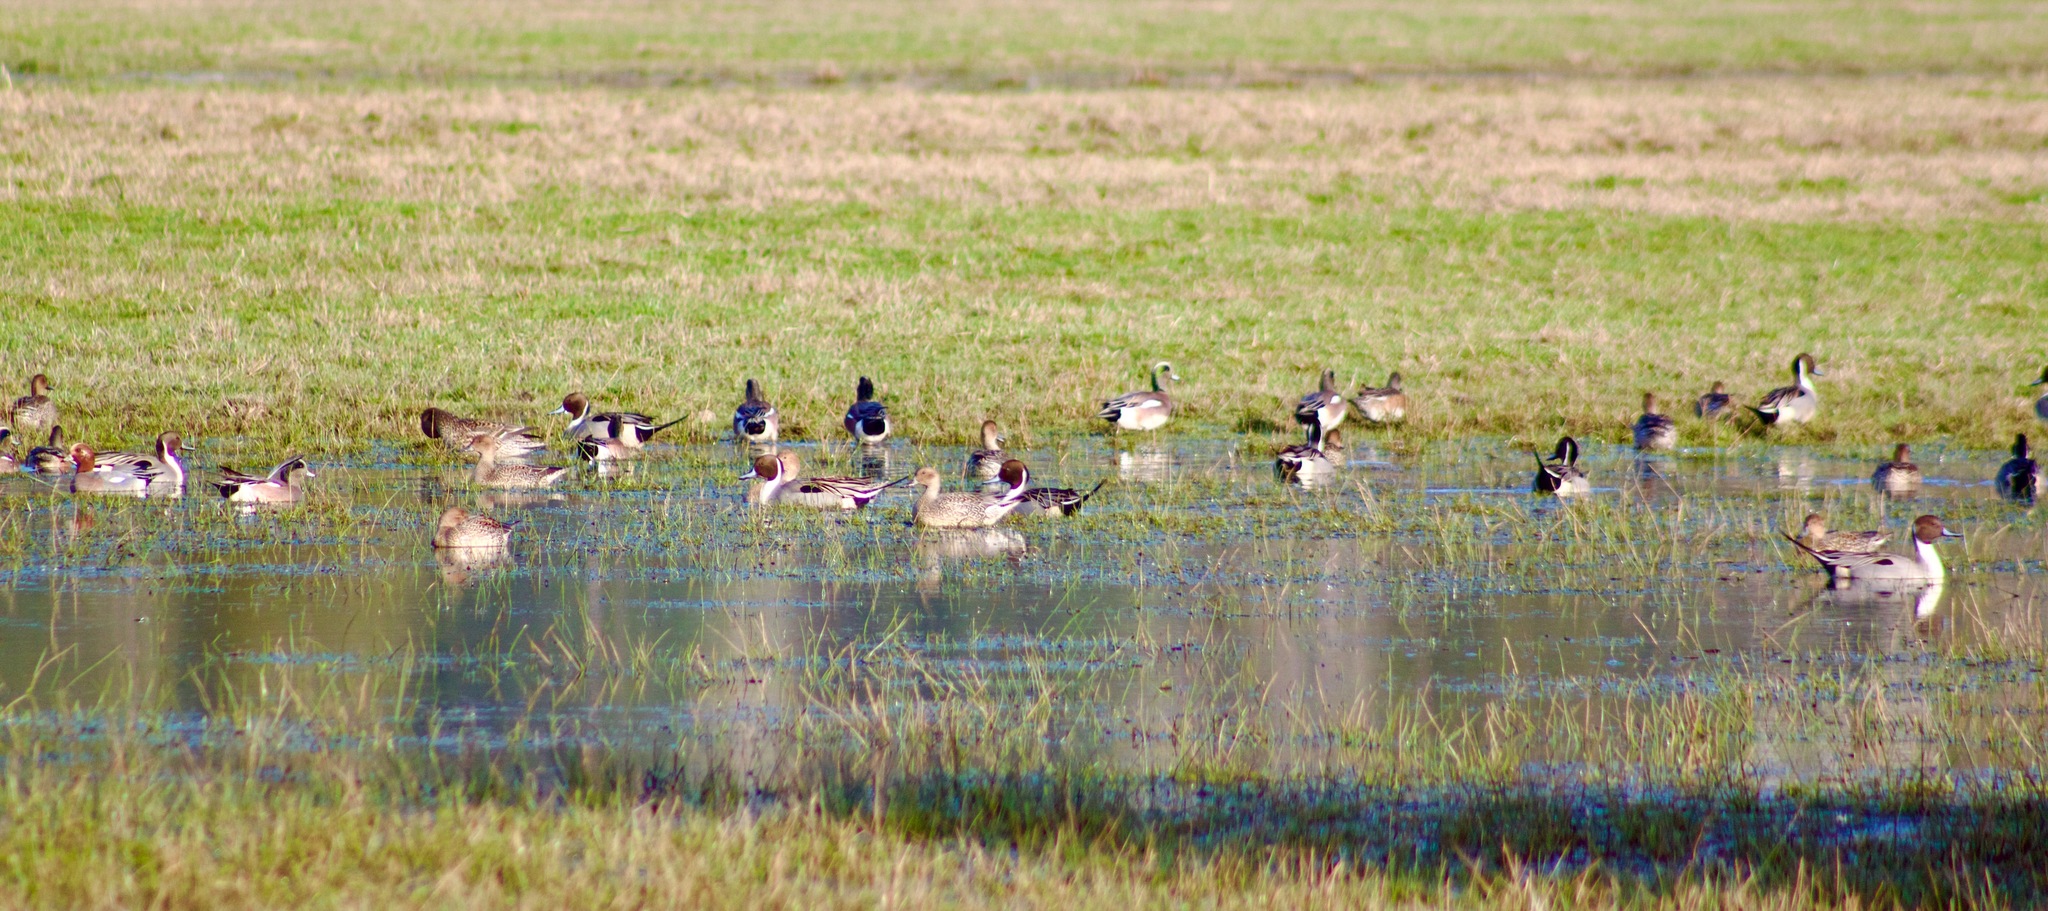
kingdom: Animalia
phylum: Chordata
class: Aves
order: Anseriformes
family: Anatidae
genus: Anas
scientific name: Anas acuta
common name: Northern pintail
